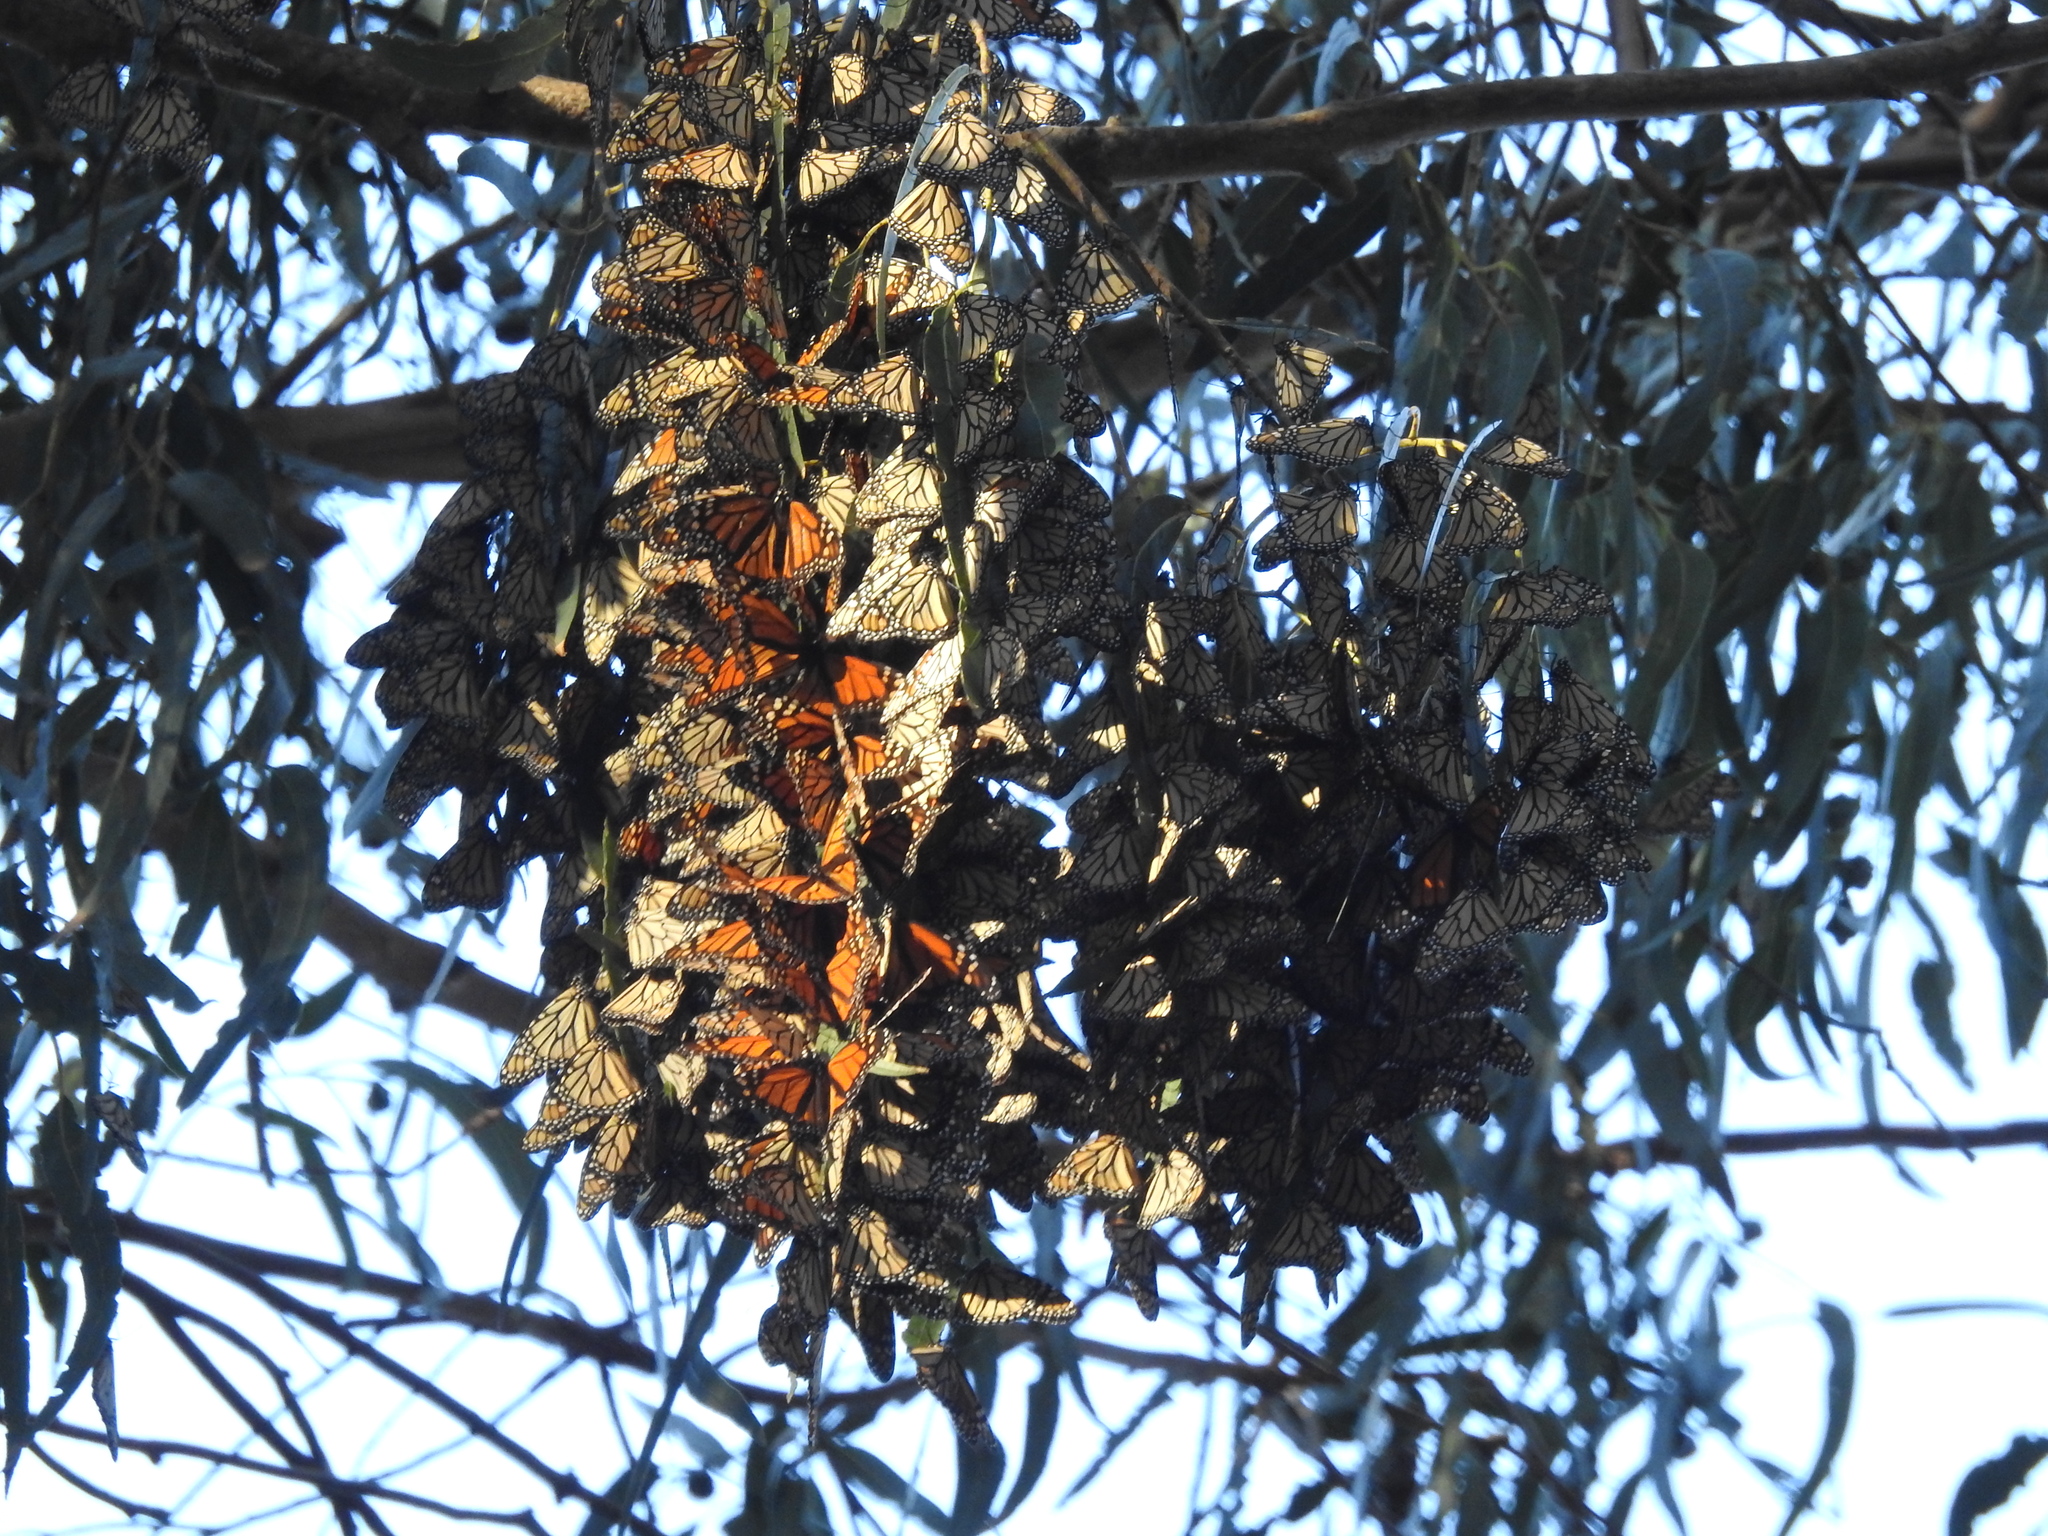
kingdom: Animalia
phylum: Arthropoda
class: Insecta
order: Lepidoptera
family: Nymphalidae
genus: Danaus
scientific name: Danaus plexippus
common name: Monarch
